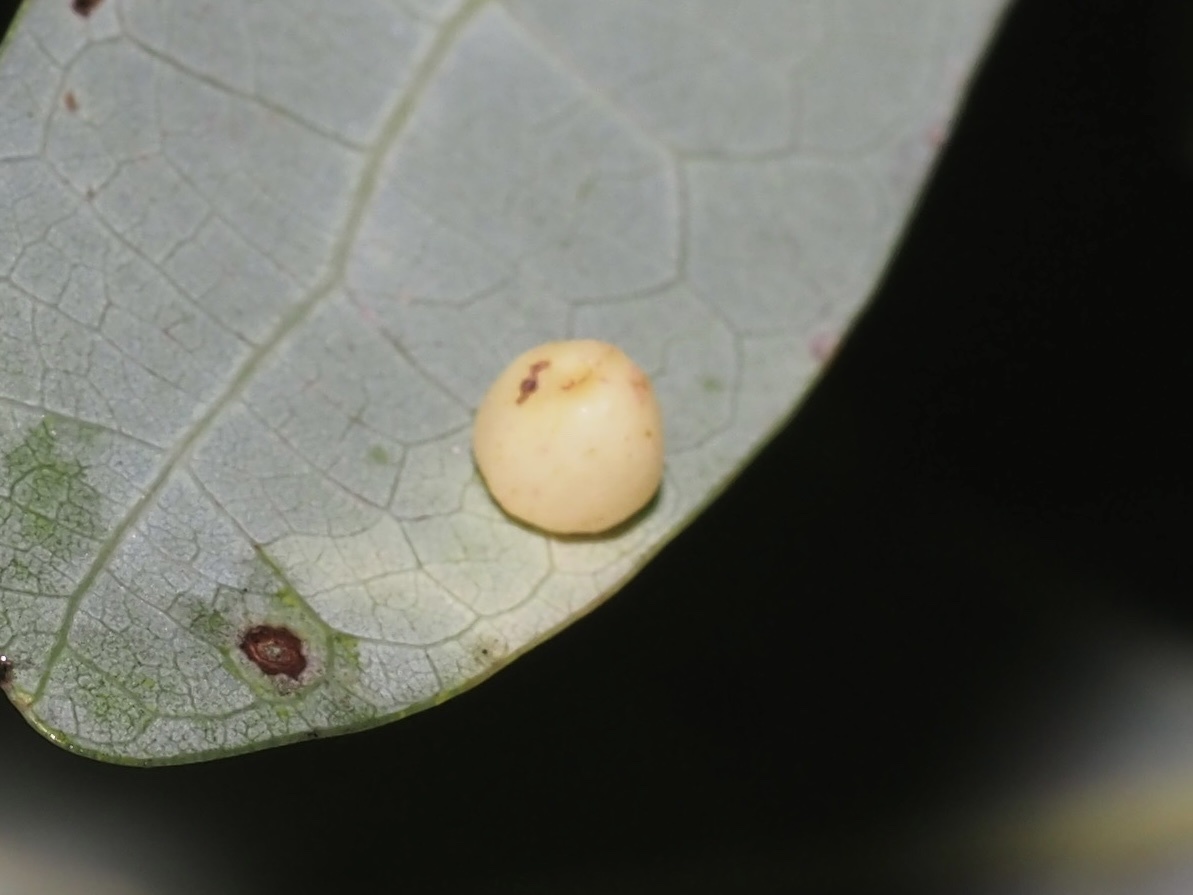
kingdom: Animalia
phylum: Arthropoda
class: Insecta
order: Hymenoptera
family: Cynipidae
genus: Andricus
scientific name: Andricus
